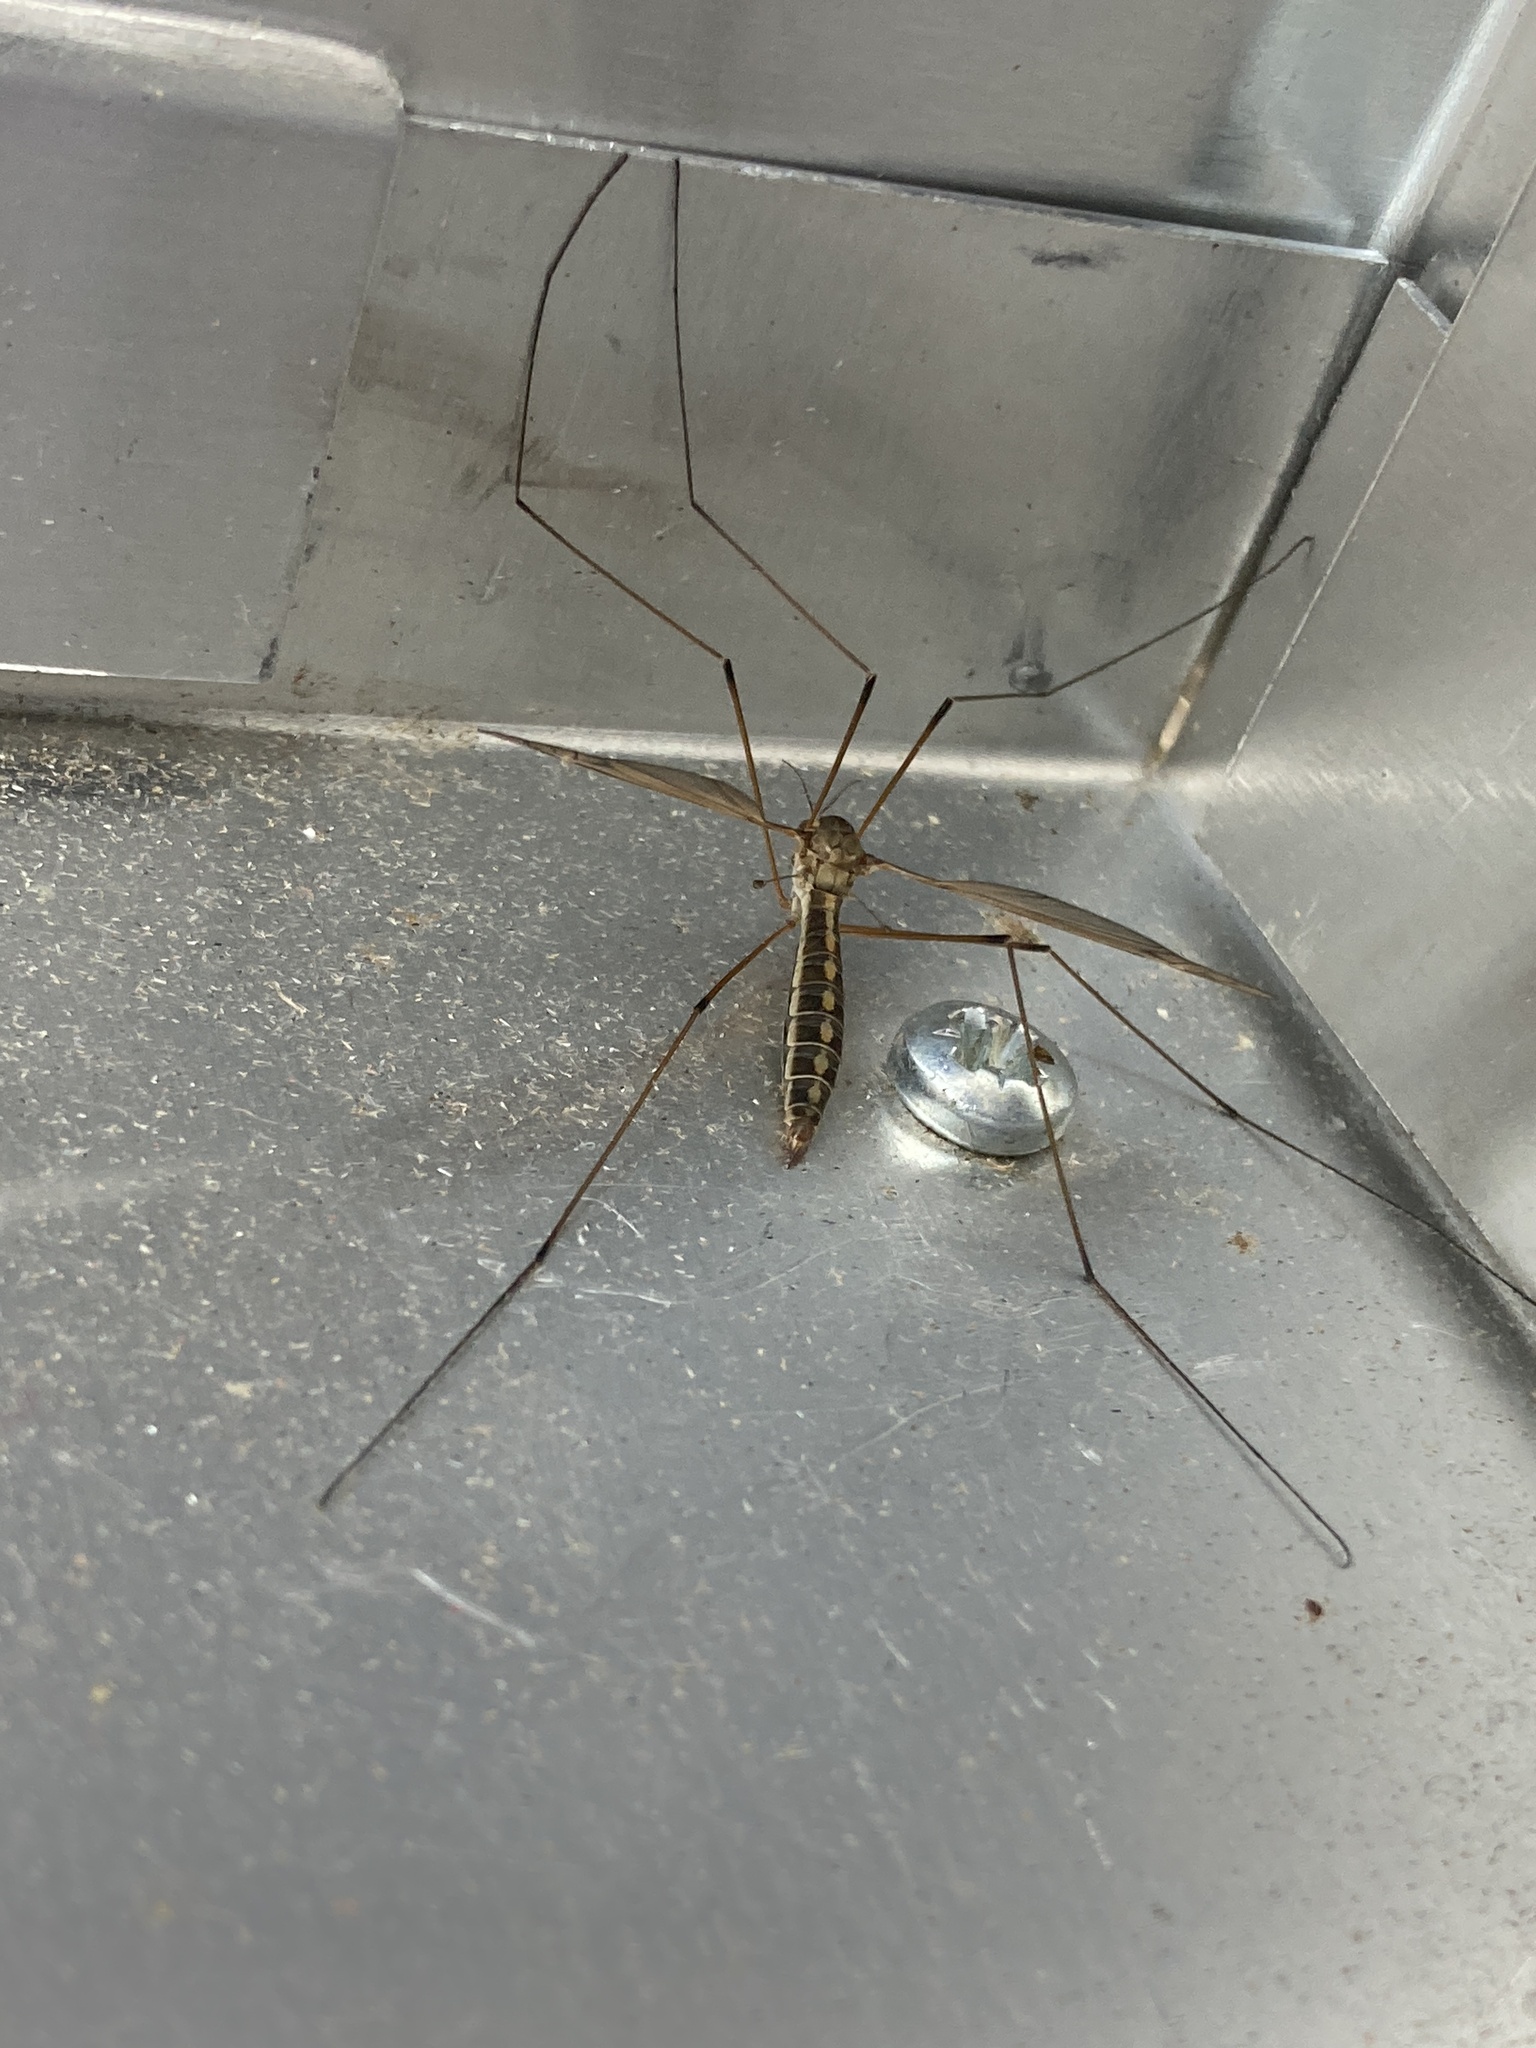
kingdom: Animalia
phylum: Arthropoda
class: Insecta
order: Diptera
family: Tipulidae
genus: Tipula
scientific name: Tipula vittata
